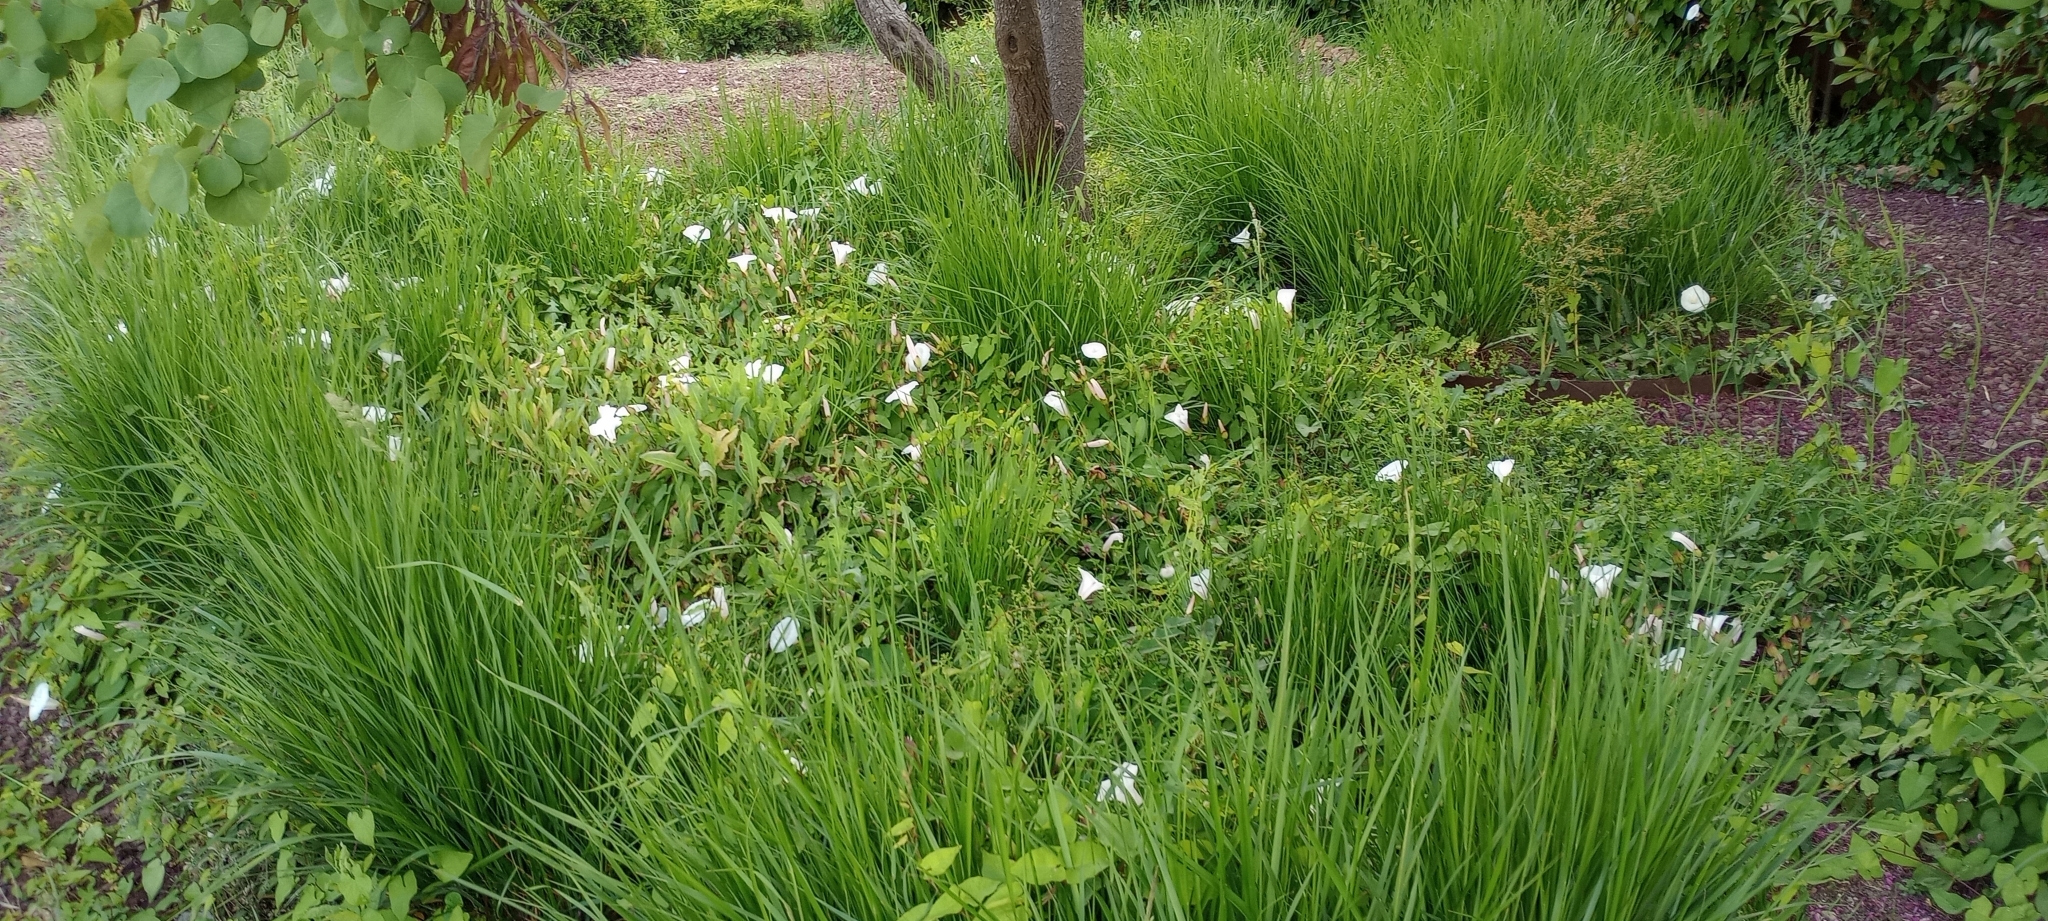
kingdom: Plantae
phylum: Tracheophyta
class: Magnoliopsida
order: Solanales
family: Convolvulaceae
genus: Calystegia
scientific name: Calystegia silvatica
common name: Large bindweed
